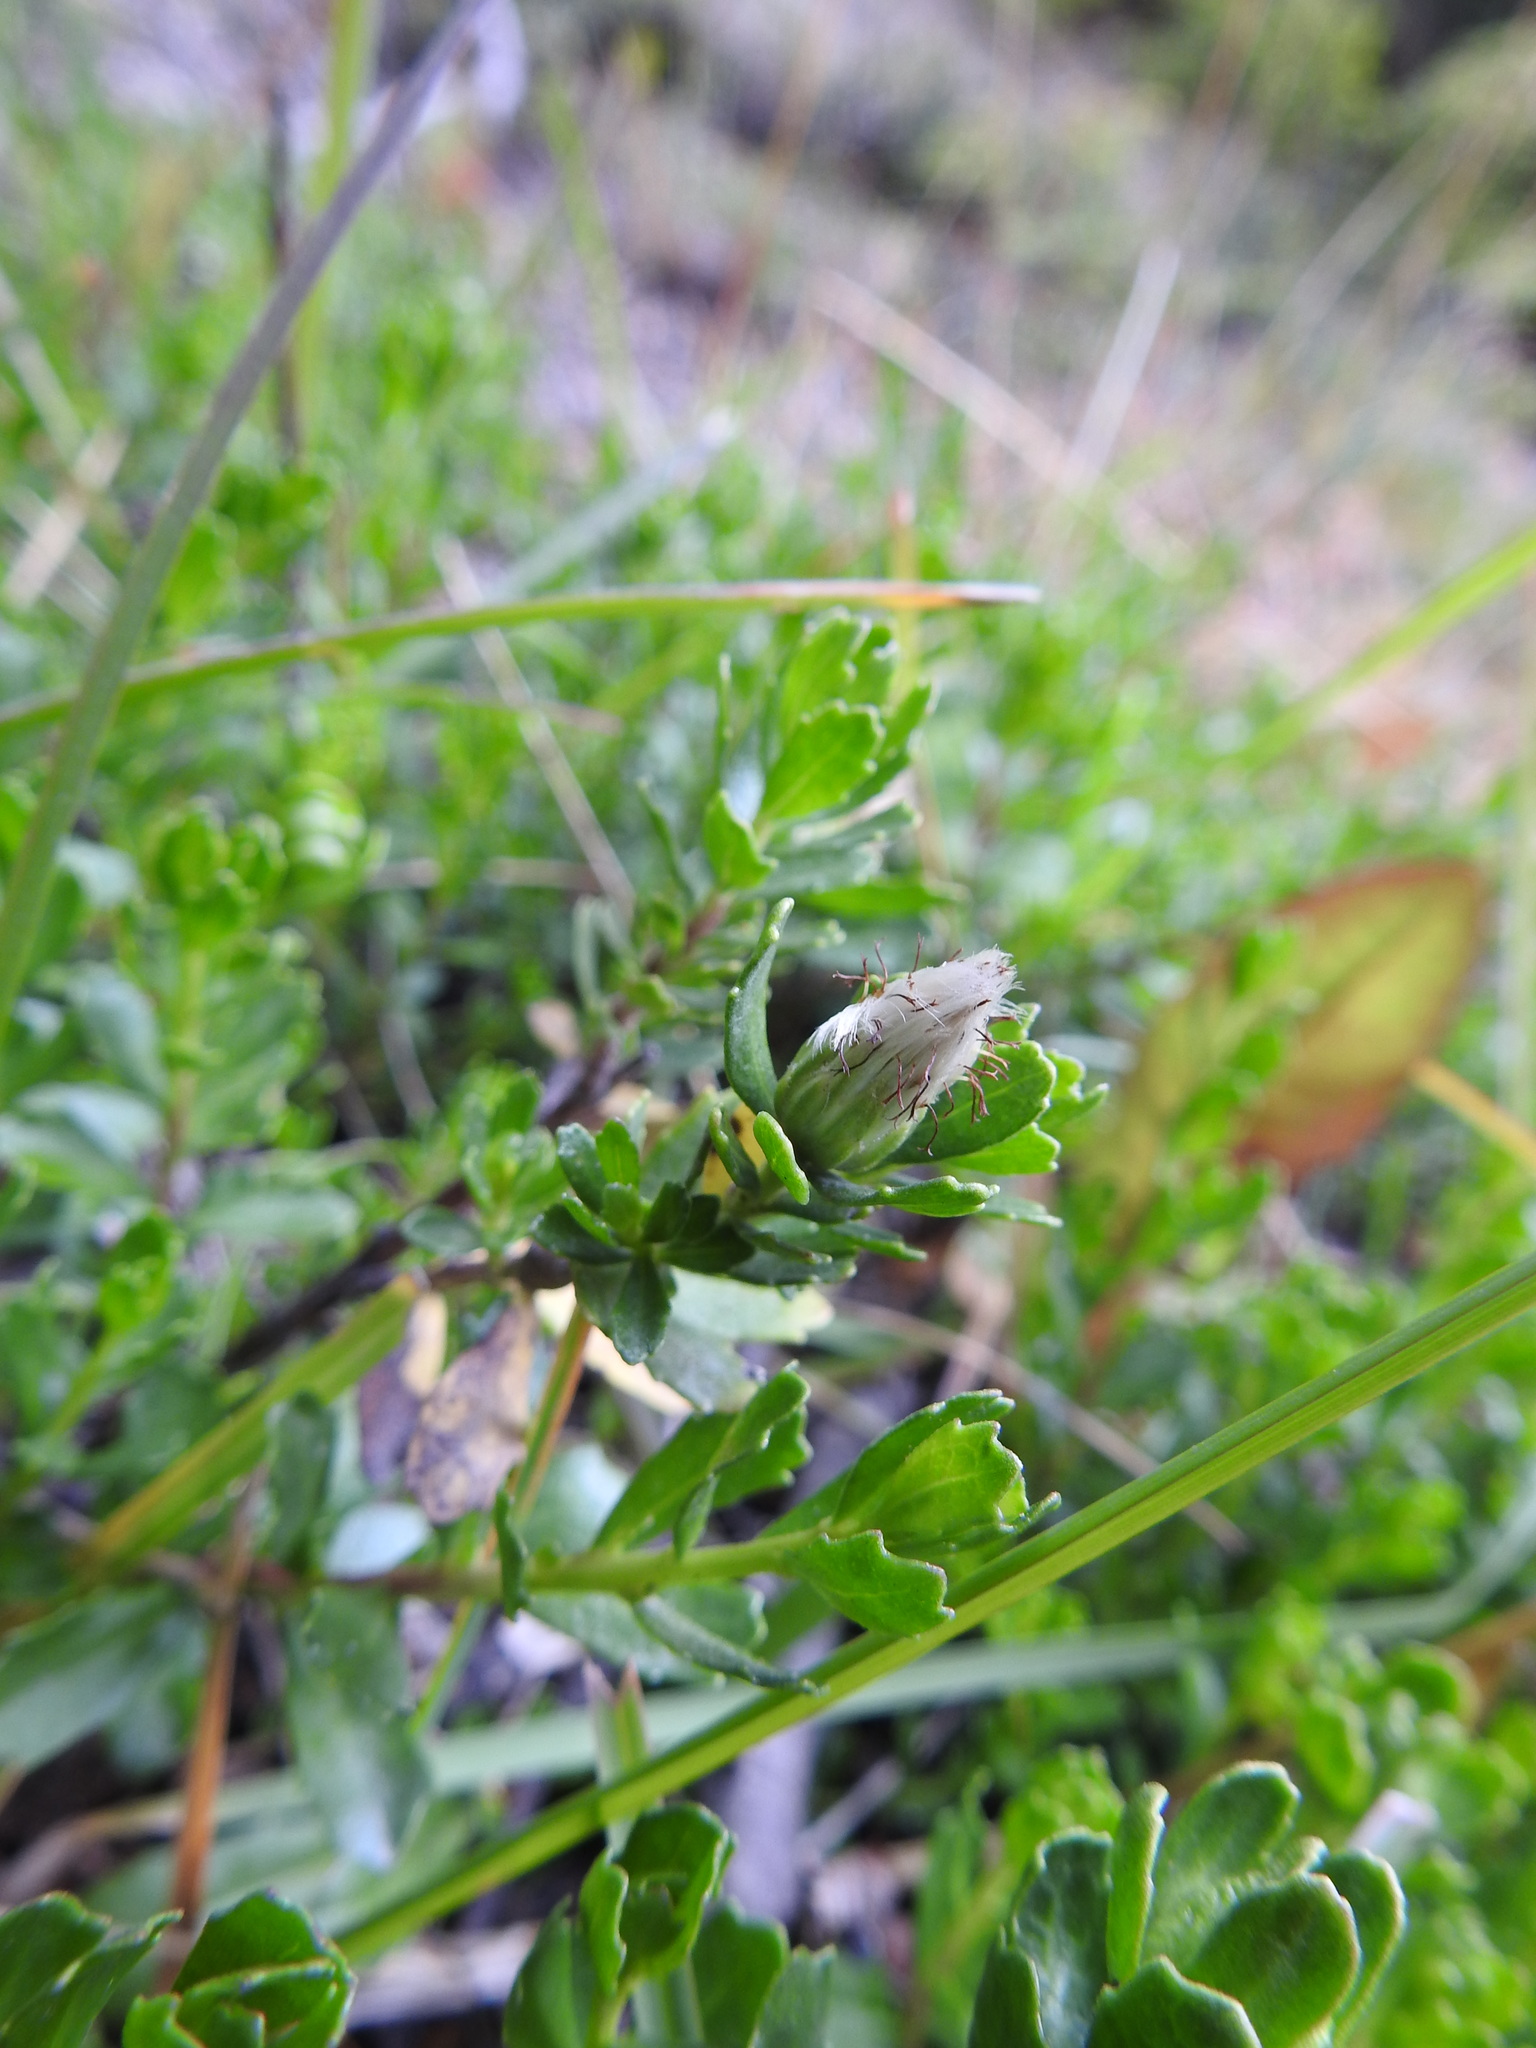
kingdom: Plantae
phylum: Tracheophyta
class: Magnoliopsida
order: Asterales
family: Asteraceae
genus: Baccharis
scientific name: Baccharis magellanica
